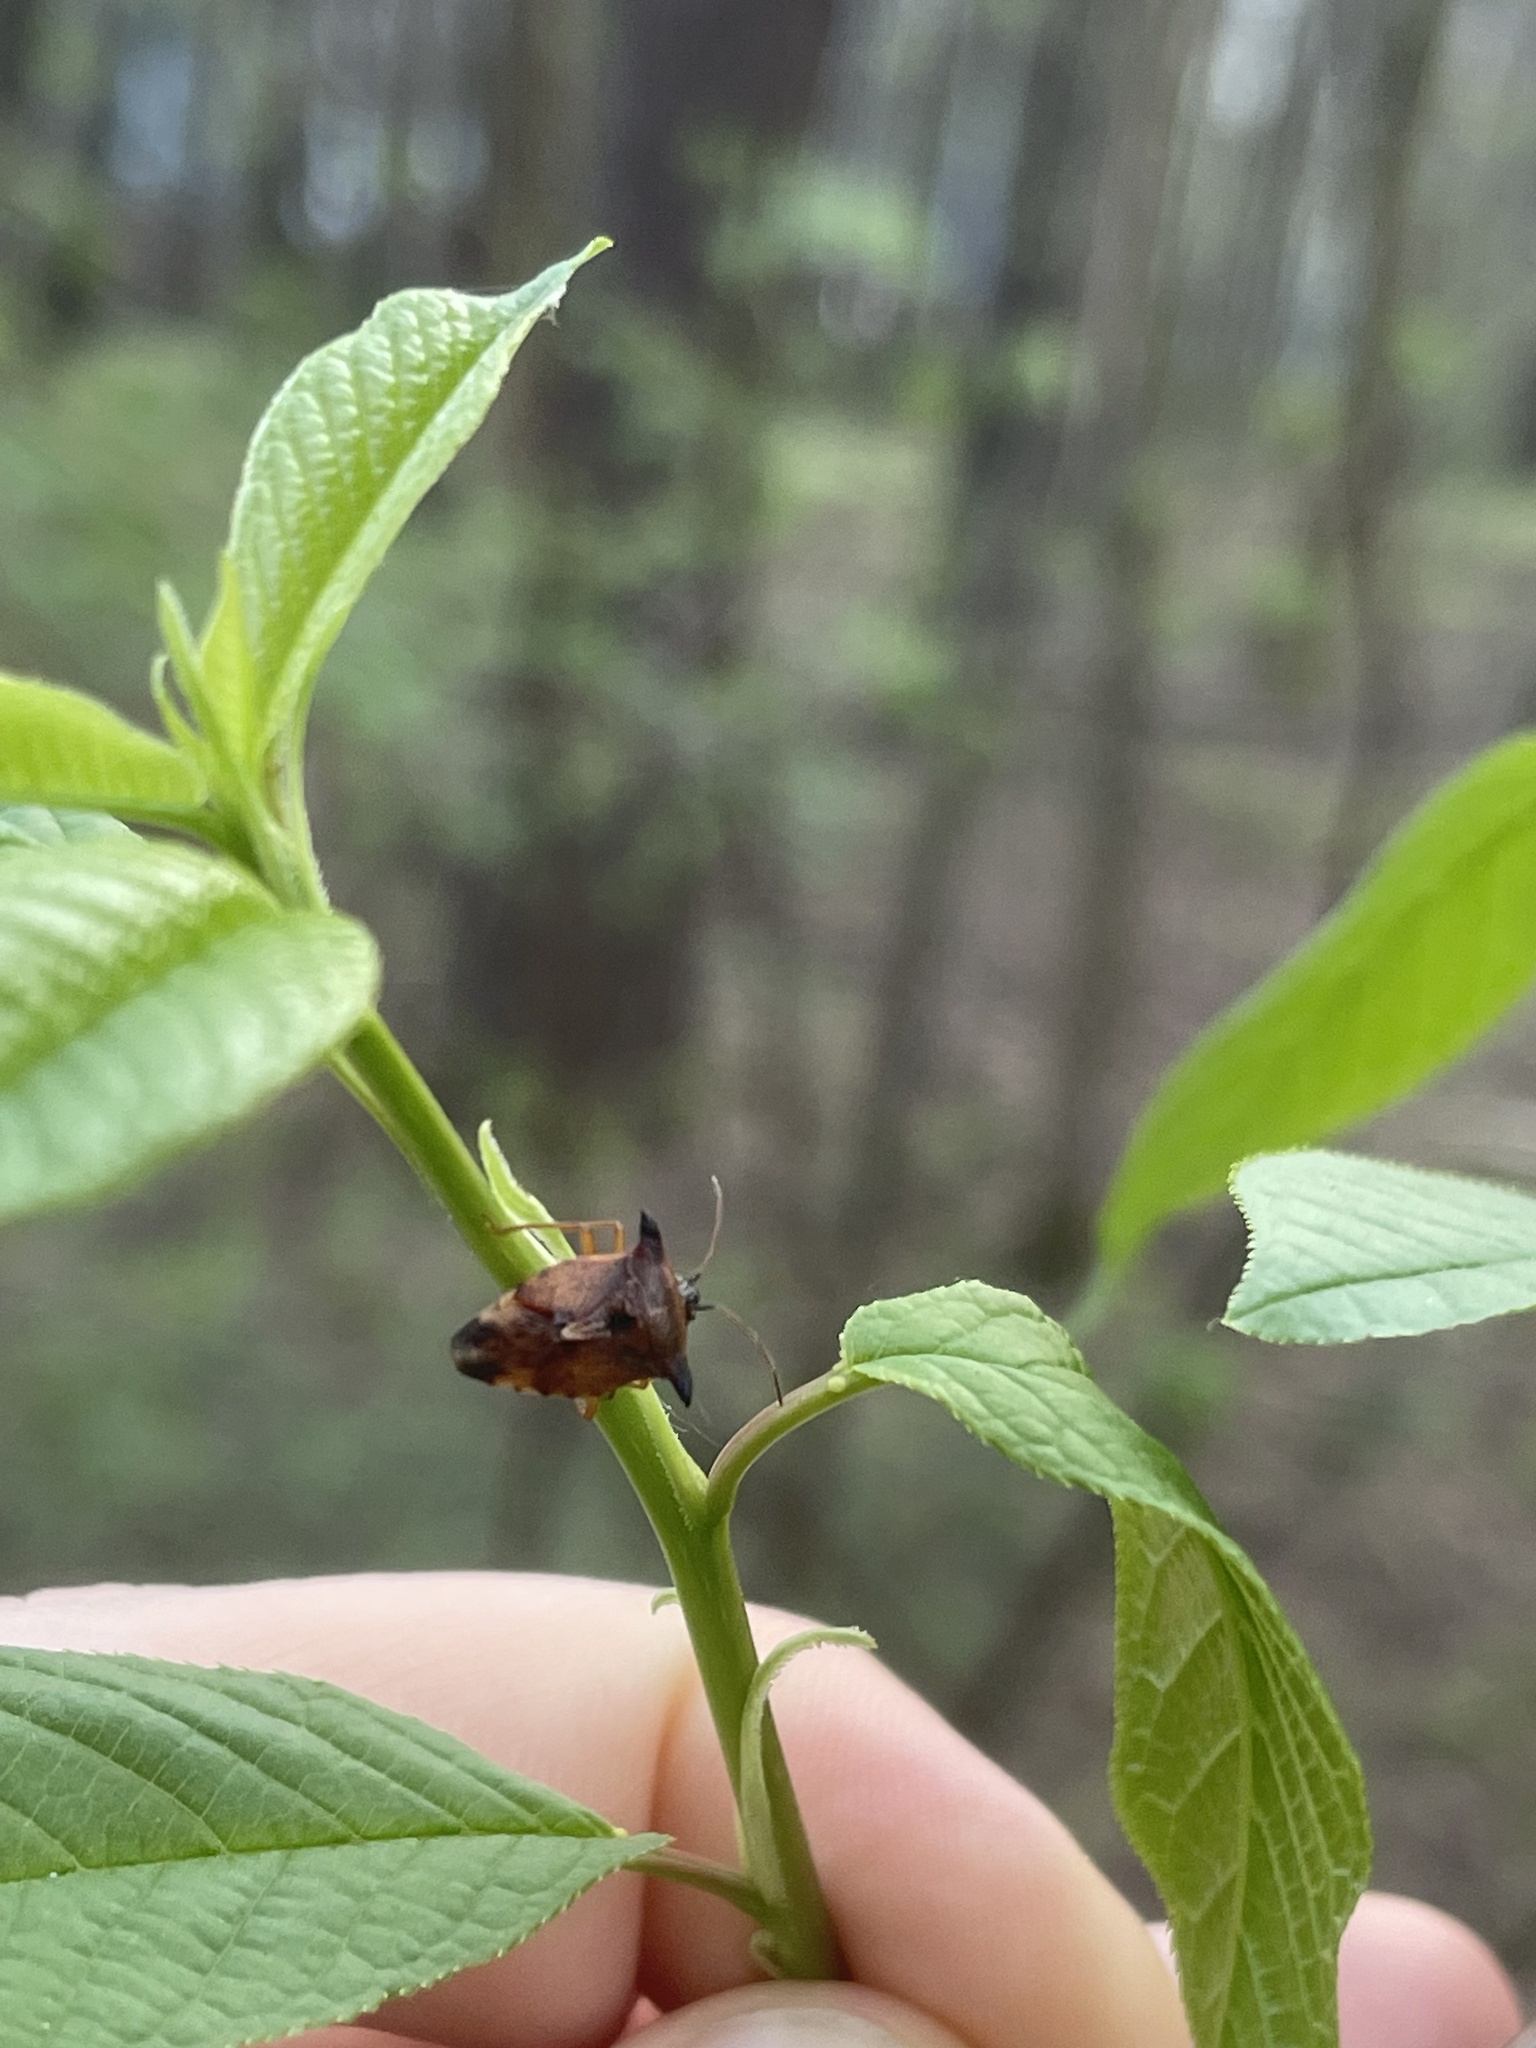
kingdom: Animalia
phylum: Arthropoda
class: Insecta
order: Hemiptera
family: Acanthosomatidae
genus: Elasmucha
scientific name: Elasmucha ferrugata
